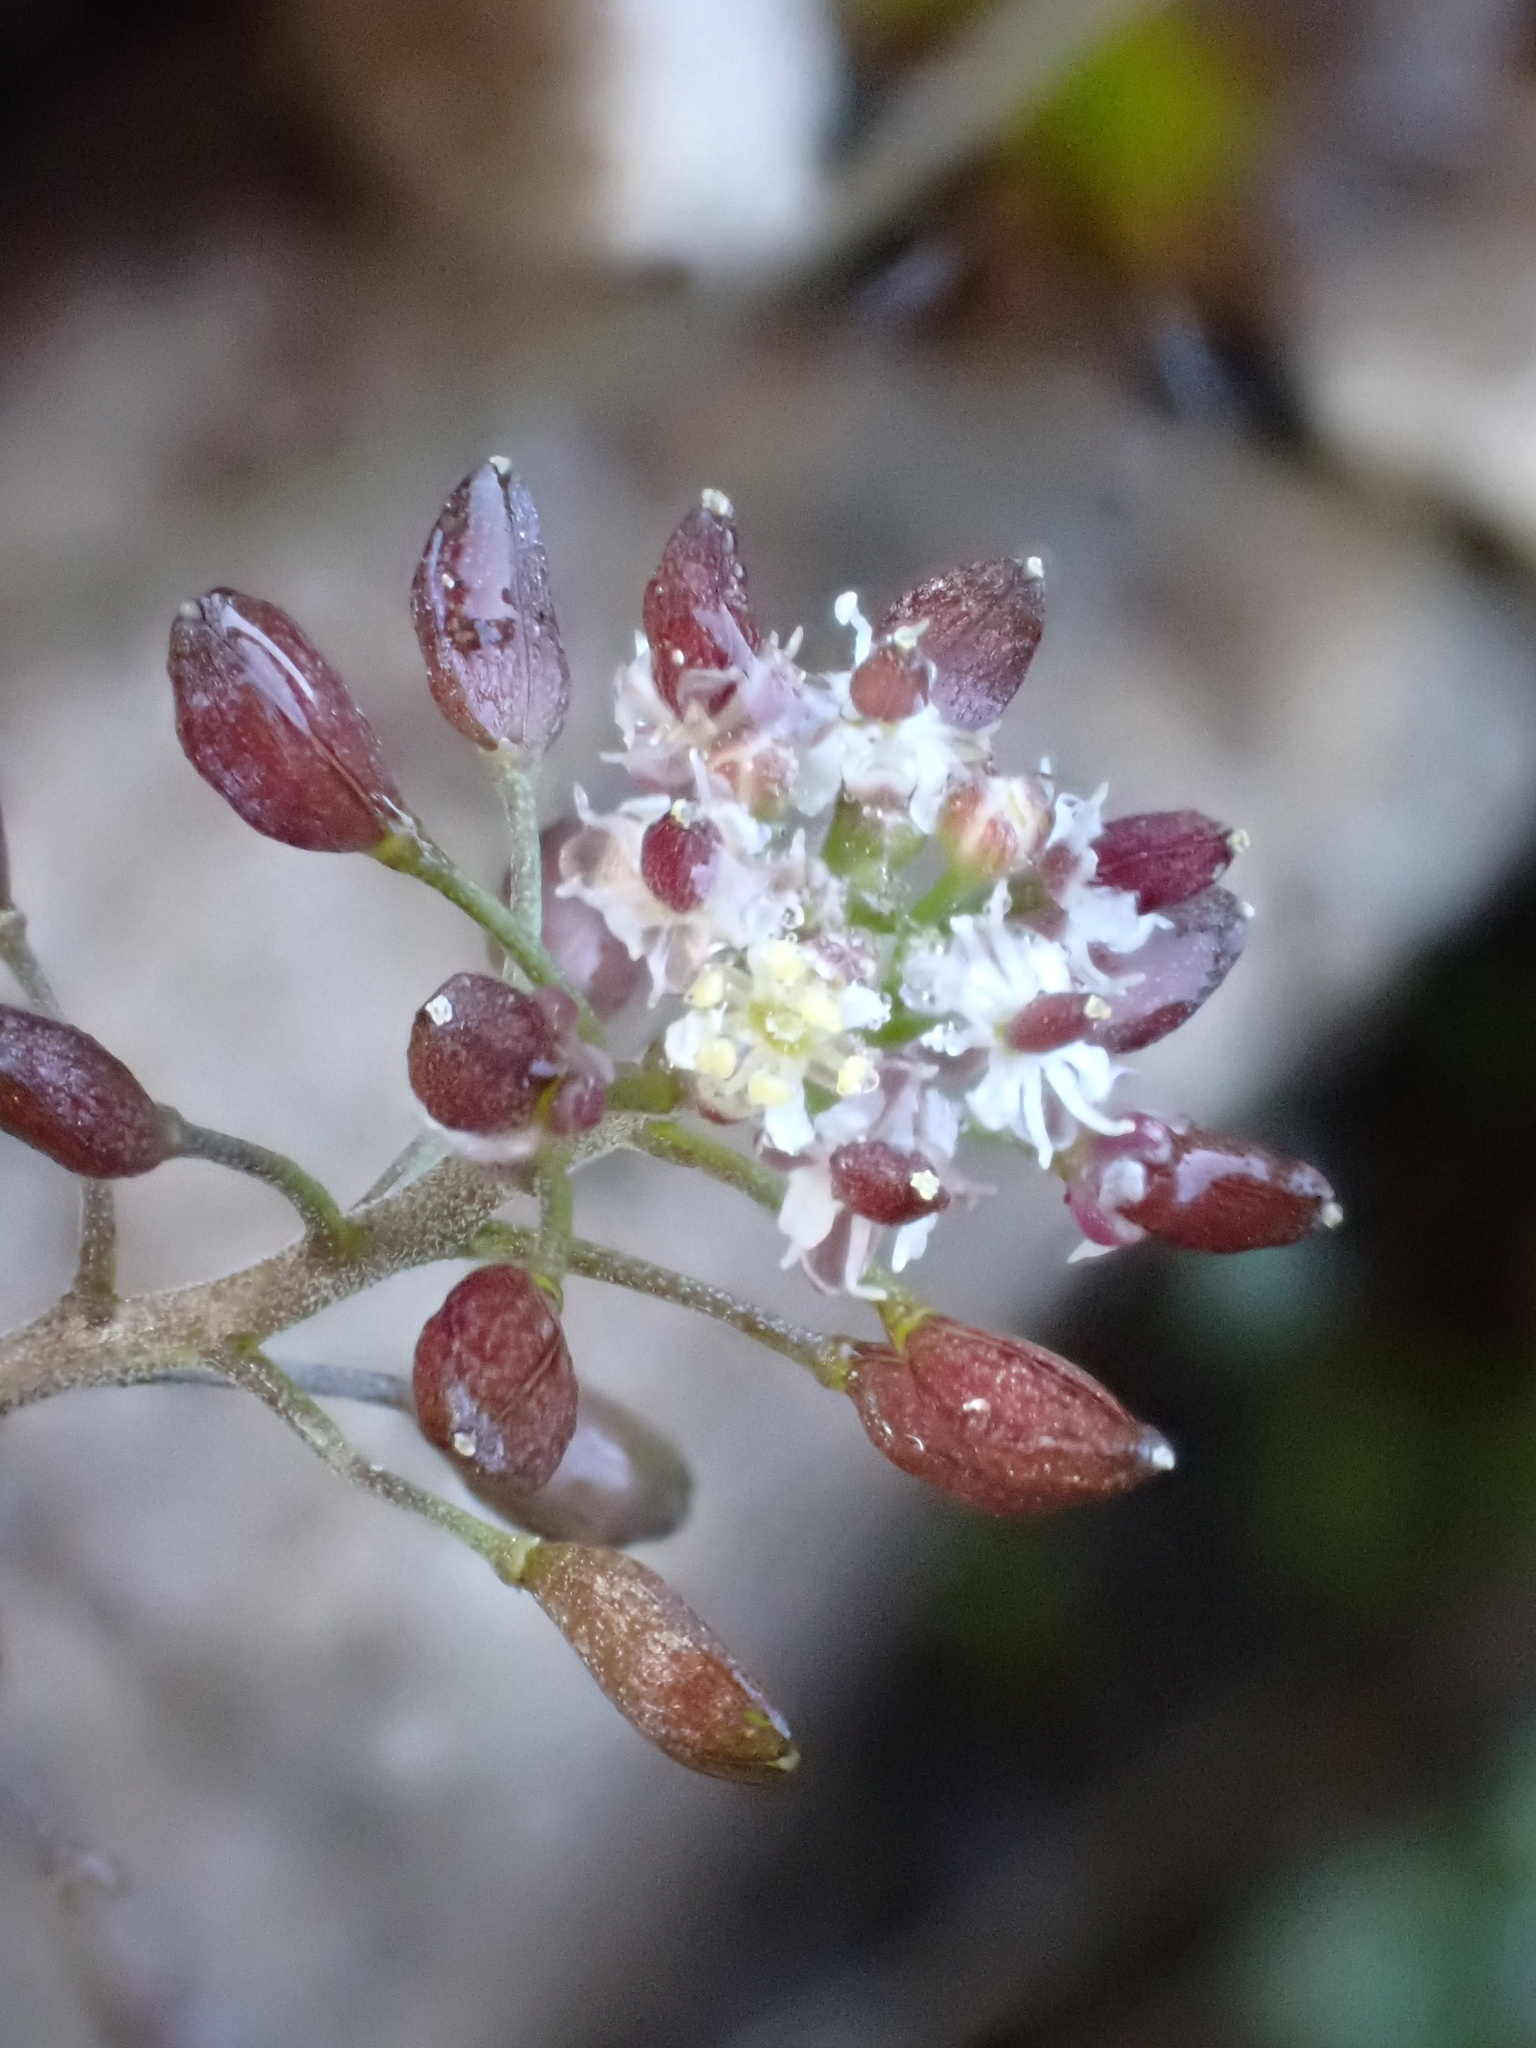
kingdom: Plantae
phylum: Tracheophyta
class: Magnoliopsida
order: Brassicales
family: Brassicaceae
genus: Hornungia
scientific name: Hornungia petraea
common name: Hutchinsia
